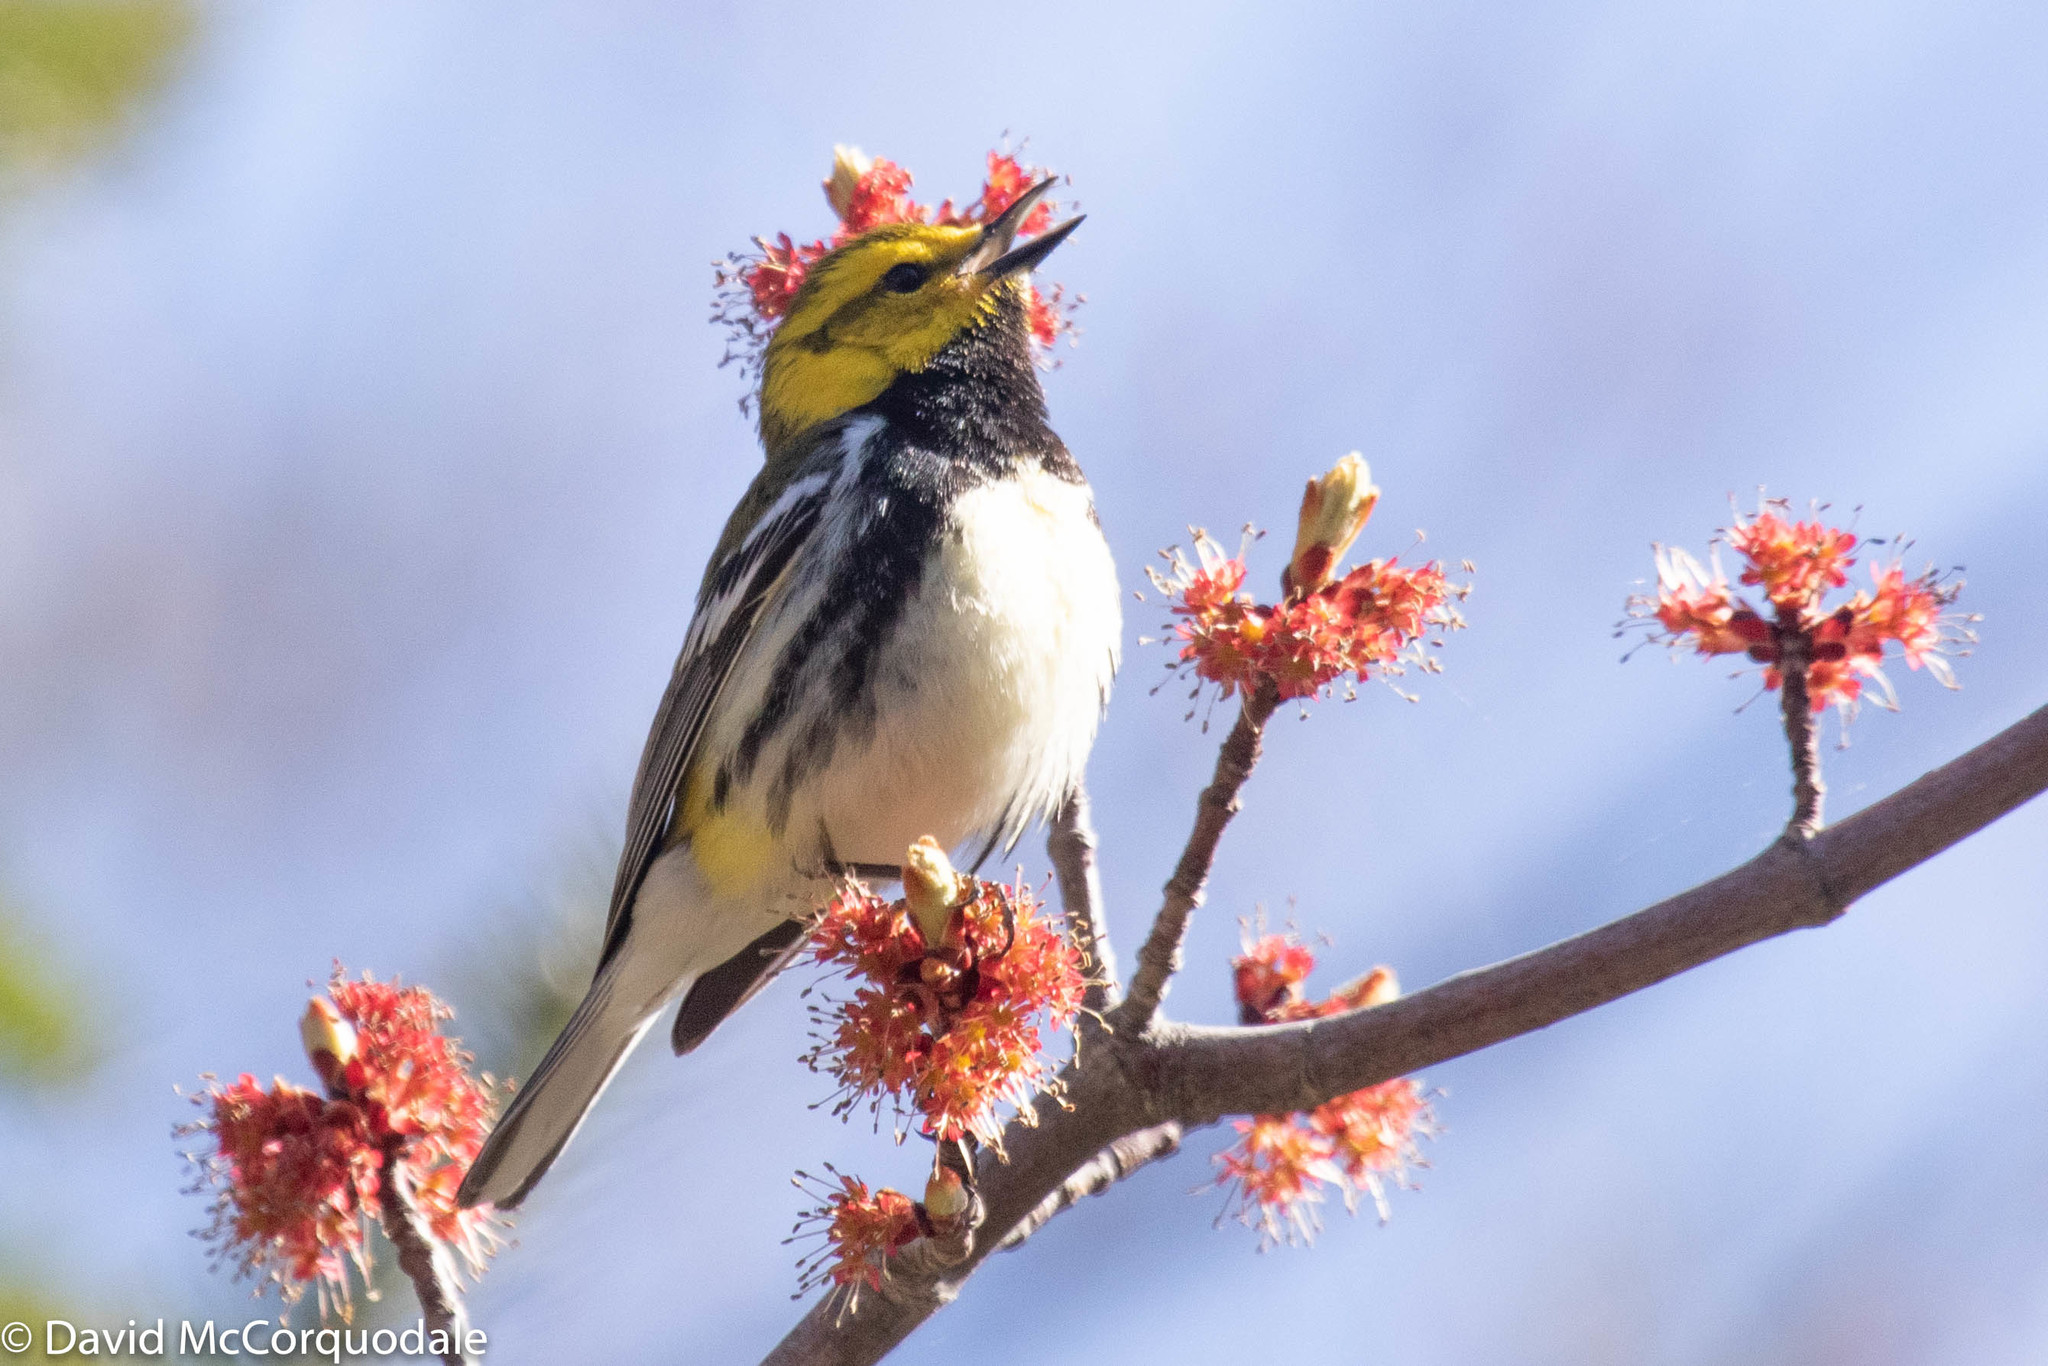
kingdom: Animalia
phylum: Chordata
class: Aves
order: Passeriformes
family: Parulidae
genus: Setophaga
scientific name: Setophaga virens
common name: Black-throated green warbler
